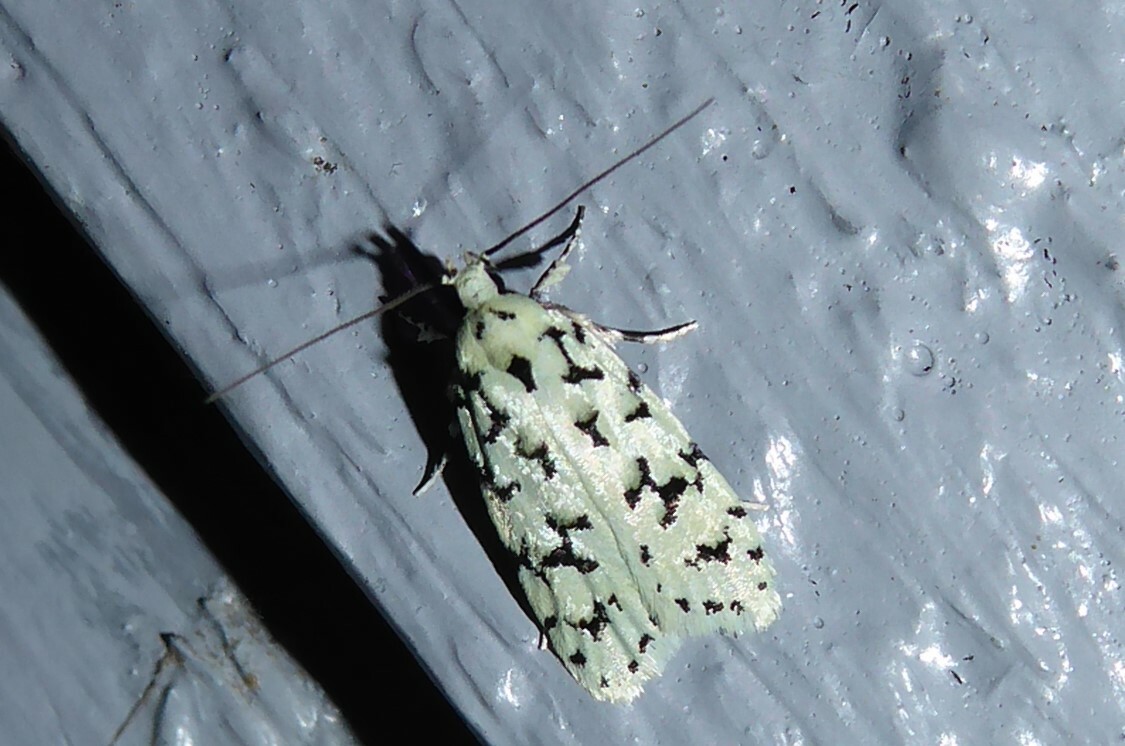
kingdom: Animalia
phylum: Arthropoda
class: Insecta
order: Lepidoptera
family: Oecophoridae
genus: Izatha
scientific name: Izatha huttoni
